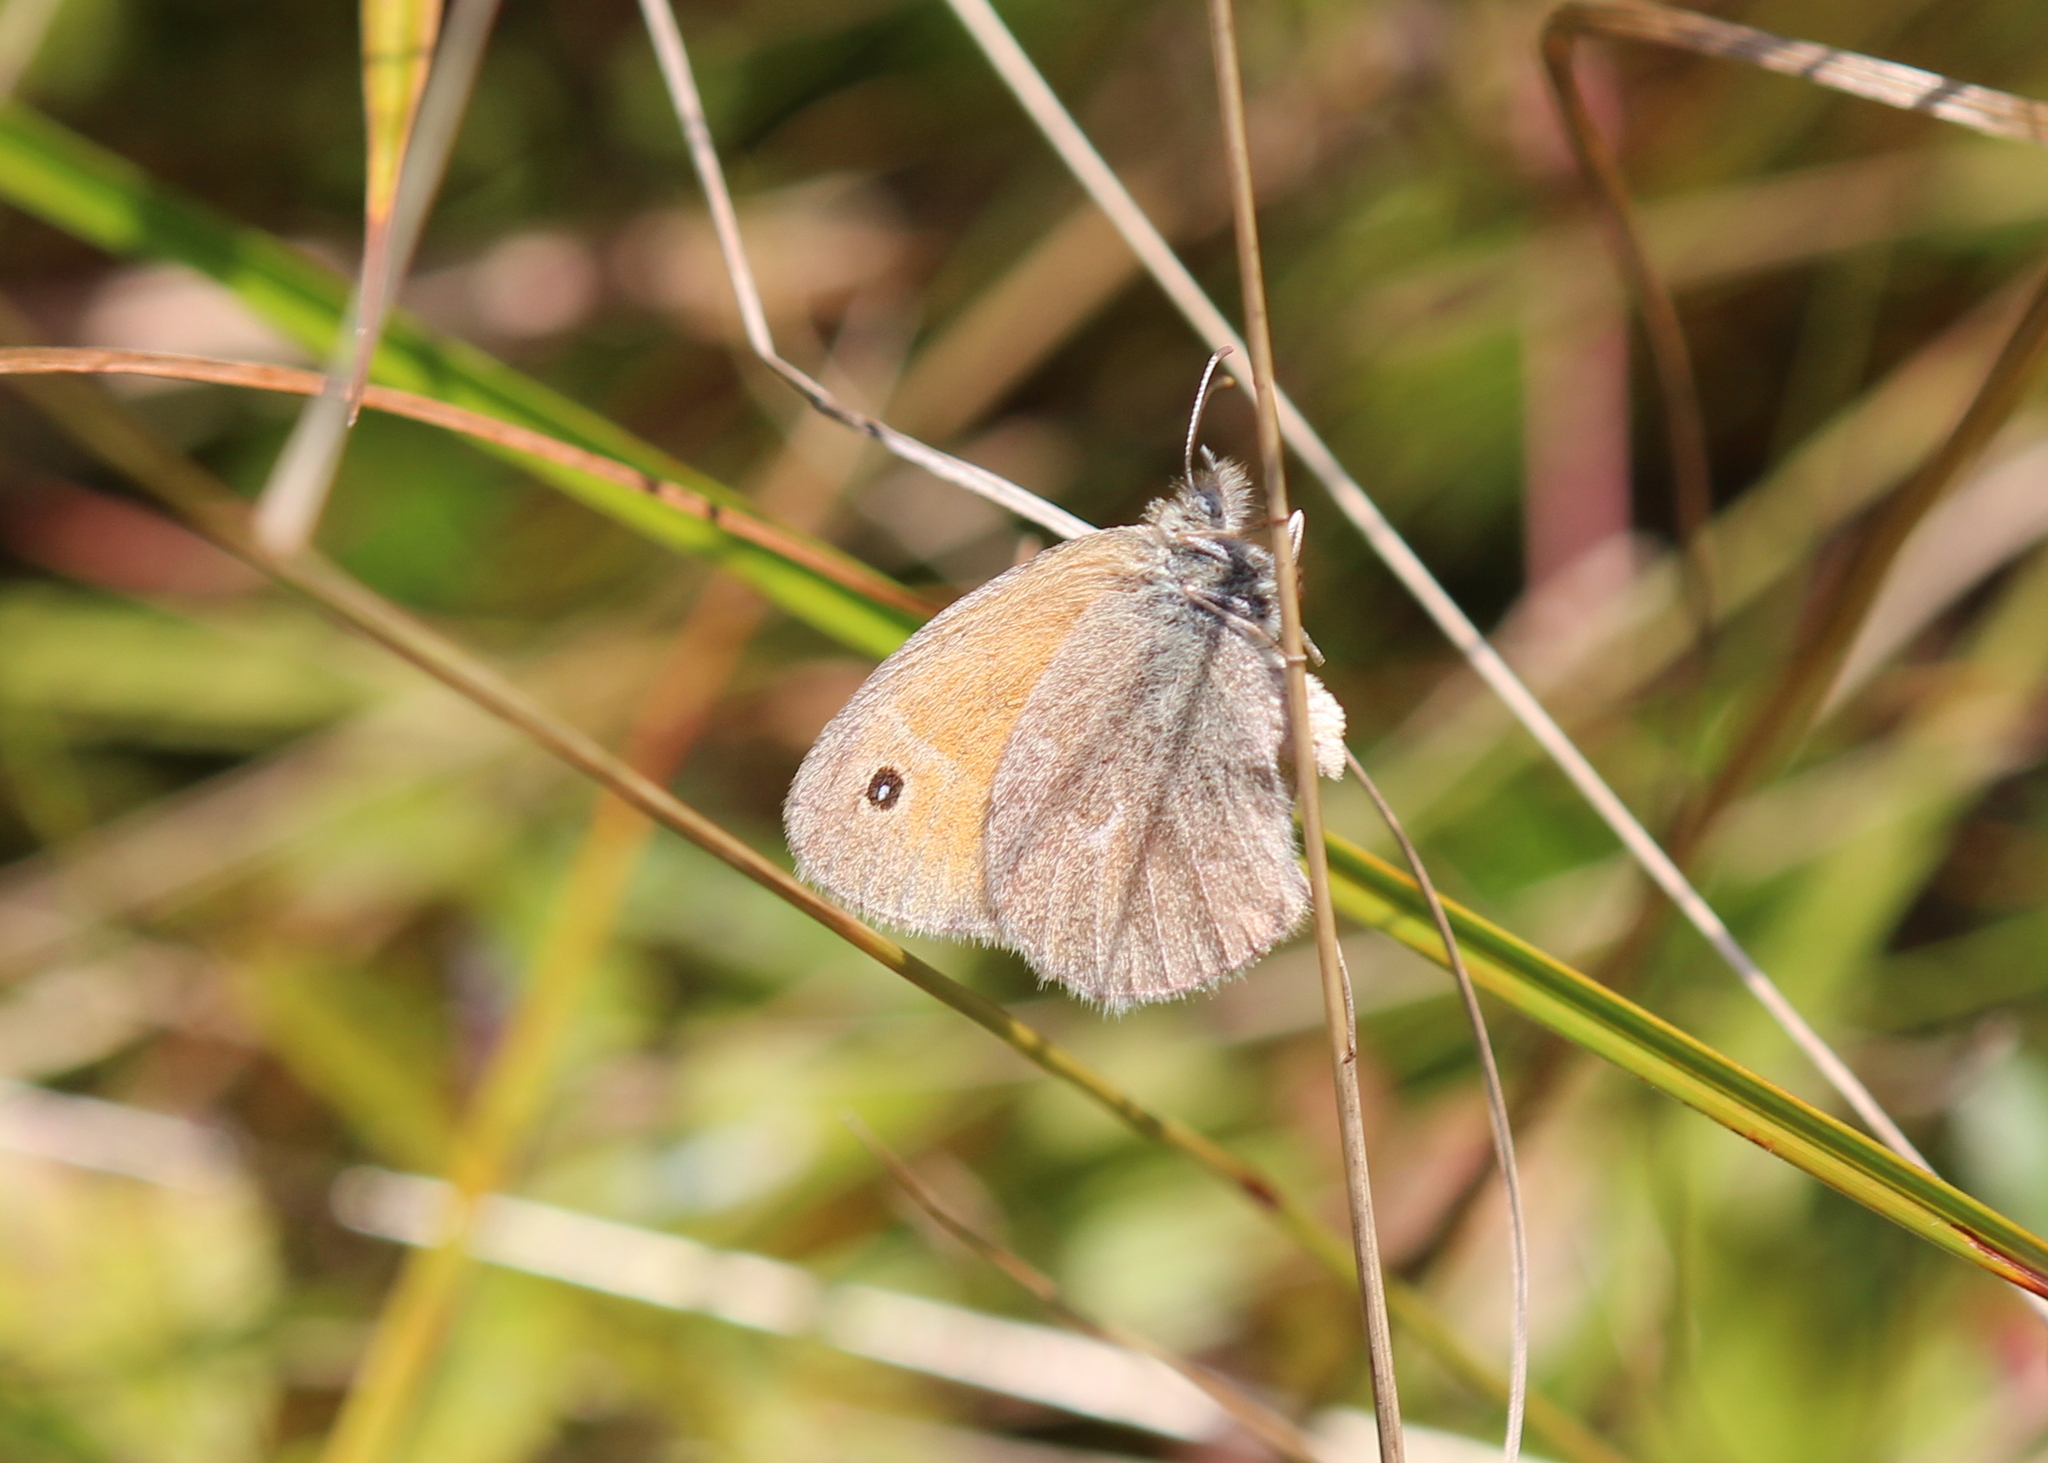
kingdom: Animalia
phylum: Arthropoda
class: Insecta
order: Lepidoptera
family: Nymphalidae
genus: Coenonympha
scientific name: Coenonympha california
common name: Common ringlet
